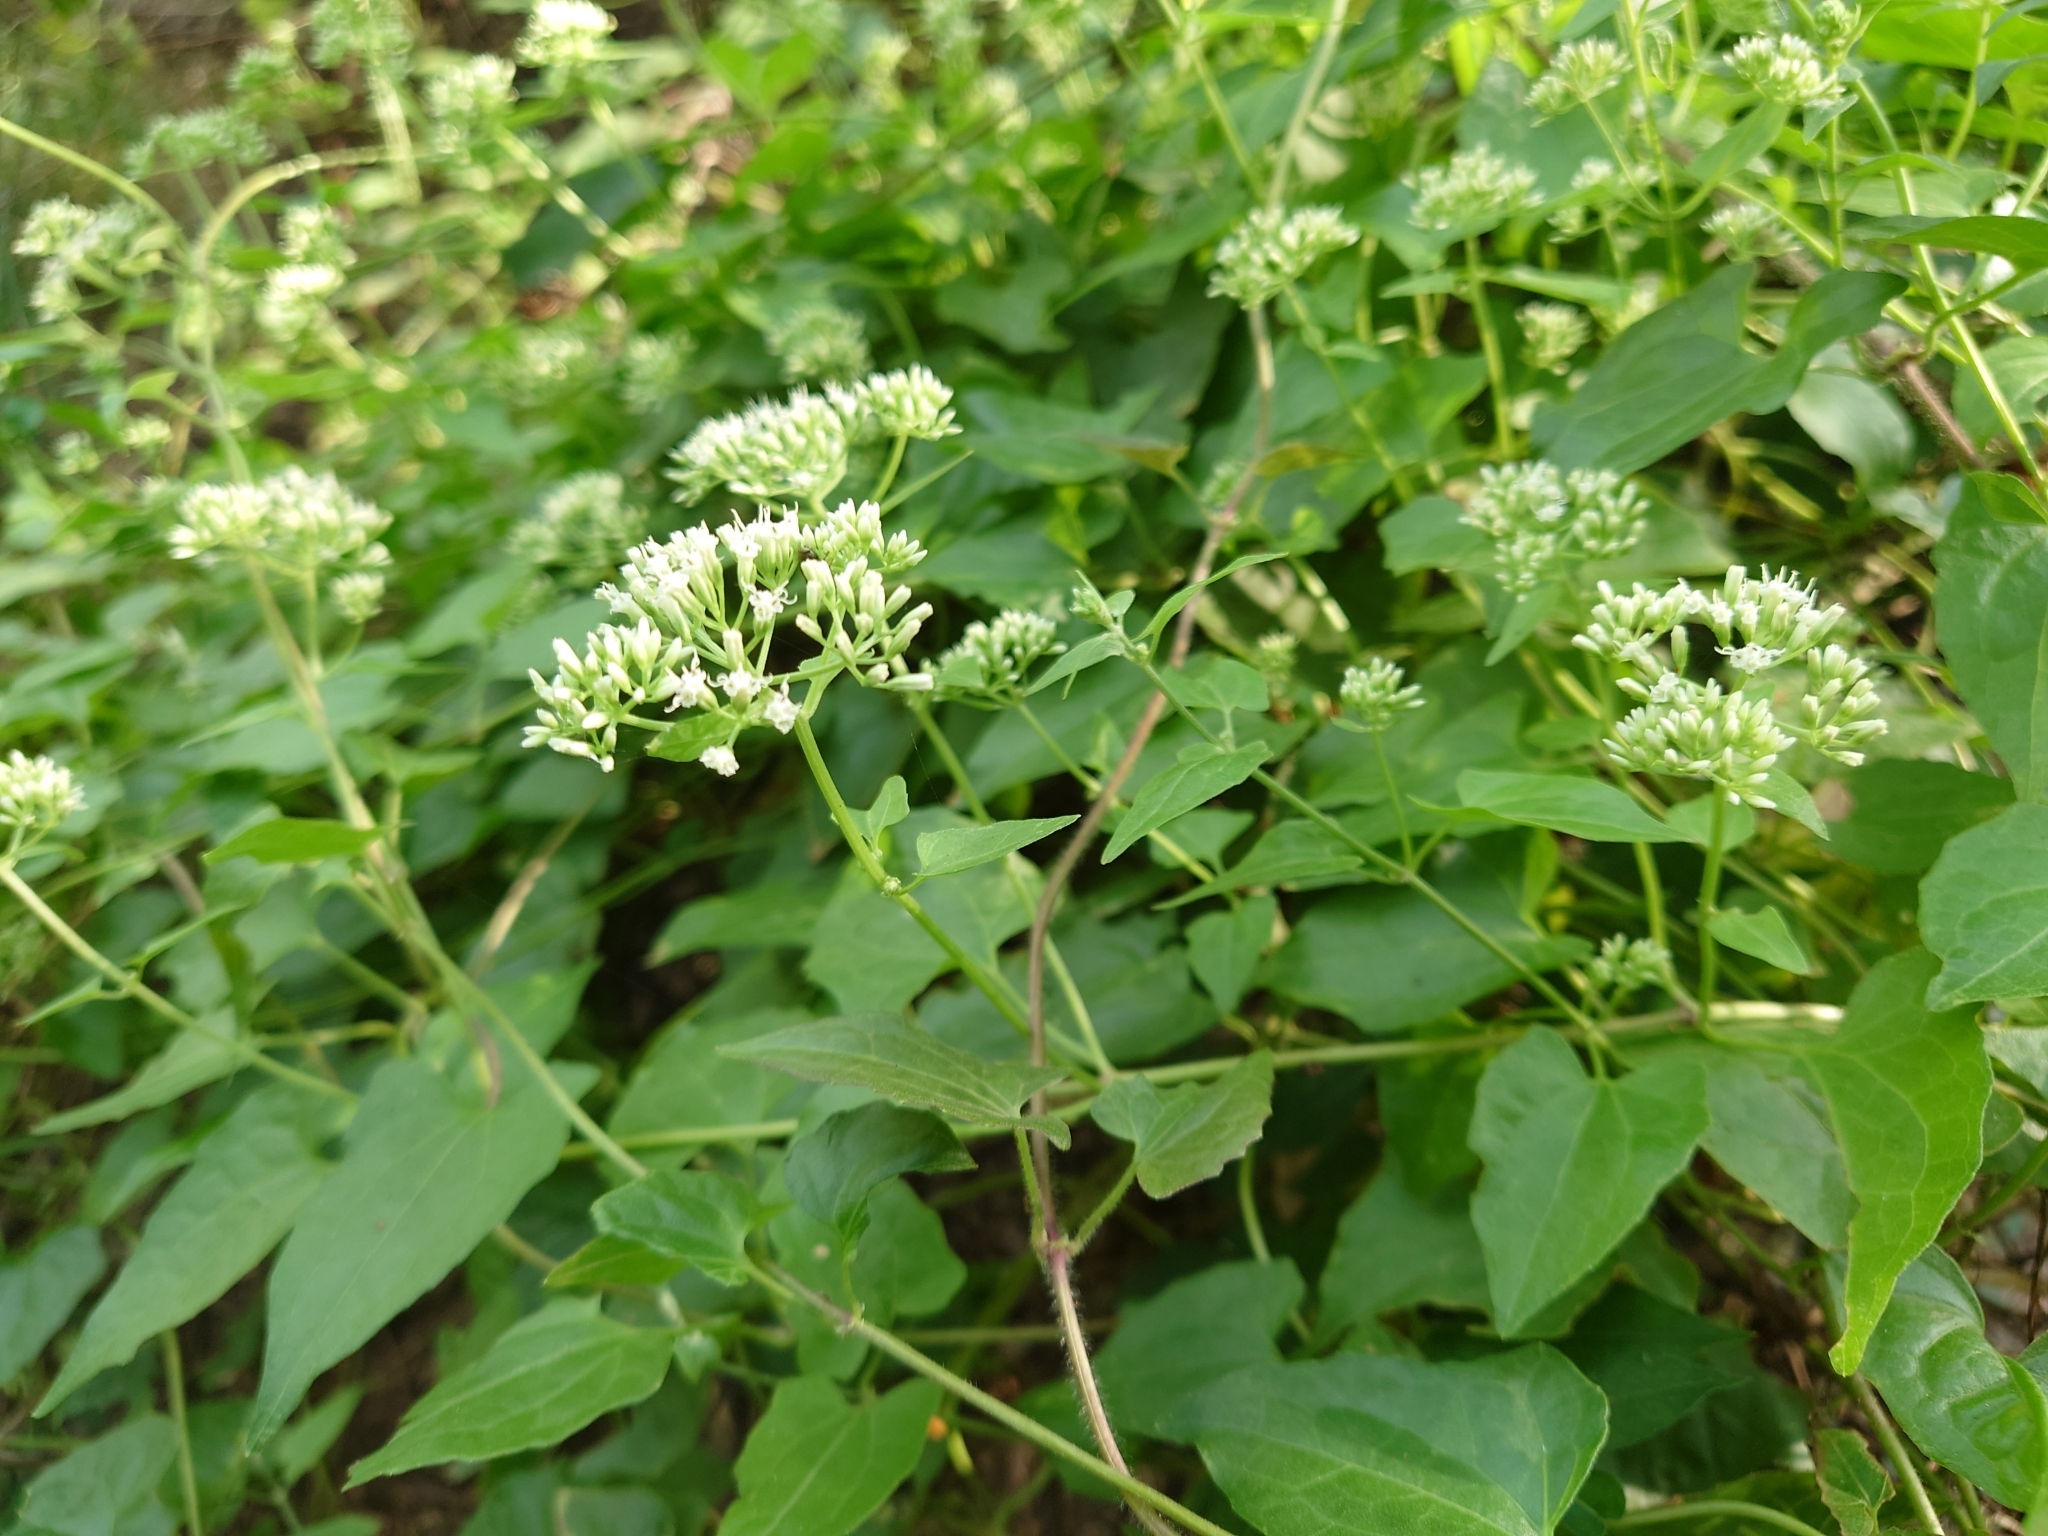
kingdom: Plantae
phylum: Tracheophyta
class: Magnoliopsida
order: Asterales
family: Asteraceae
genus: Mikania
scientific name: Mikania micrantha
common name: Mile-a-minute
